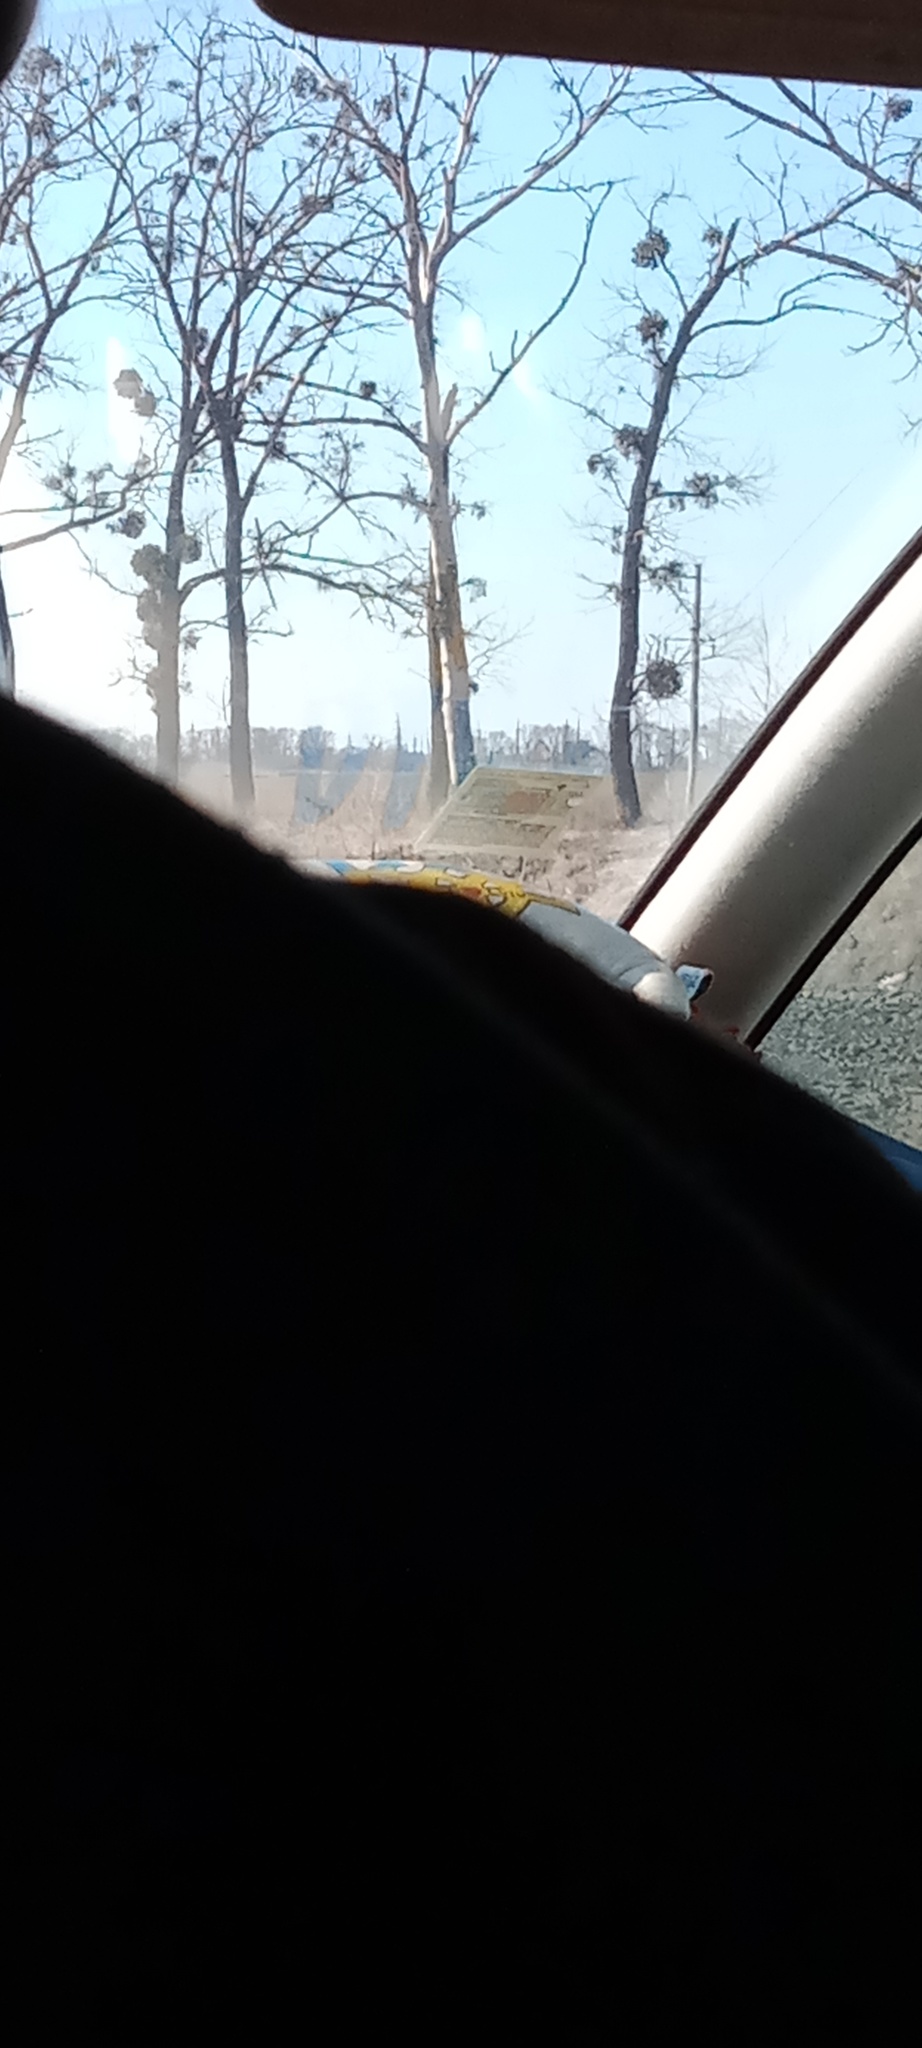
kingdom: Plantae
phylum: Tracheophyta
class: Magnoliopsida
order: Santalales
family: Viscaceae
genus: Viscum
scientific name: Viscum album
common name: Mistletoe
